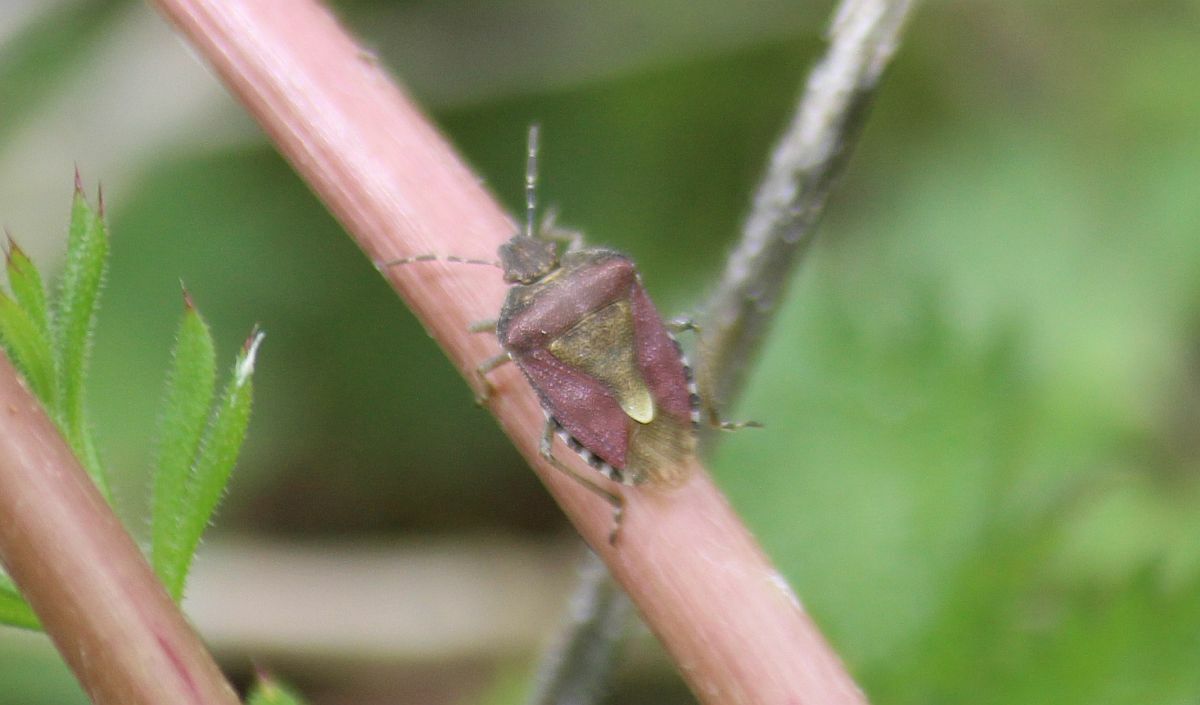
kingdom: Animalia
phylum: Arthropoda
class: Insecta
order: Hemiptera
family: Pentatomidae
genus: Dolycoris
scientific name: Dolycoris baccarum
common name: Sloe bug
